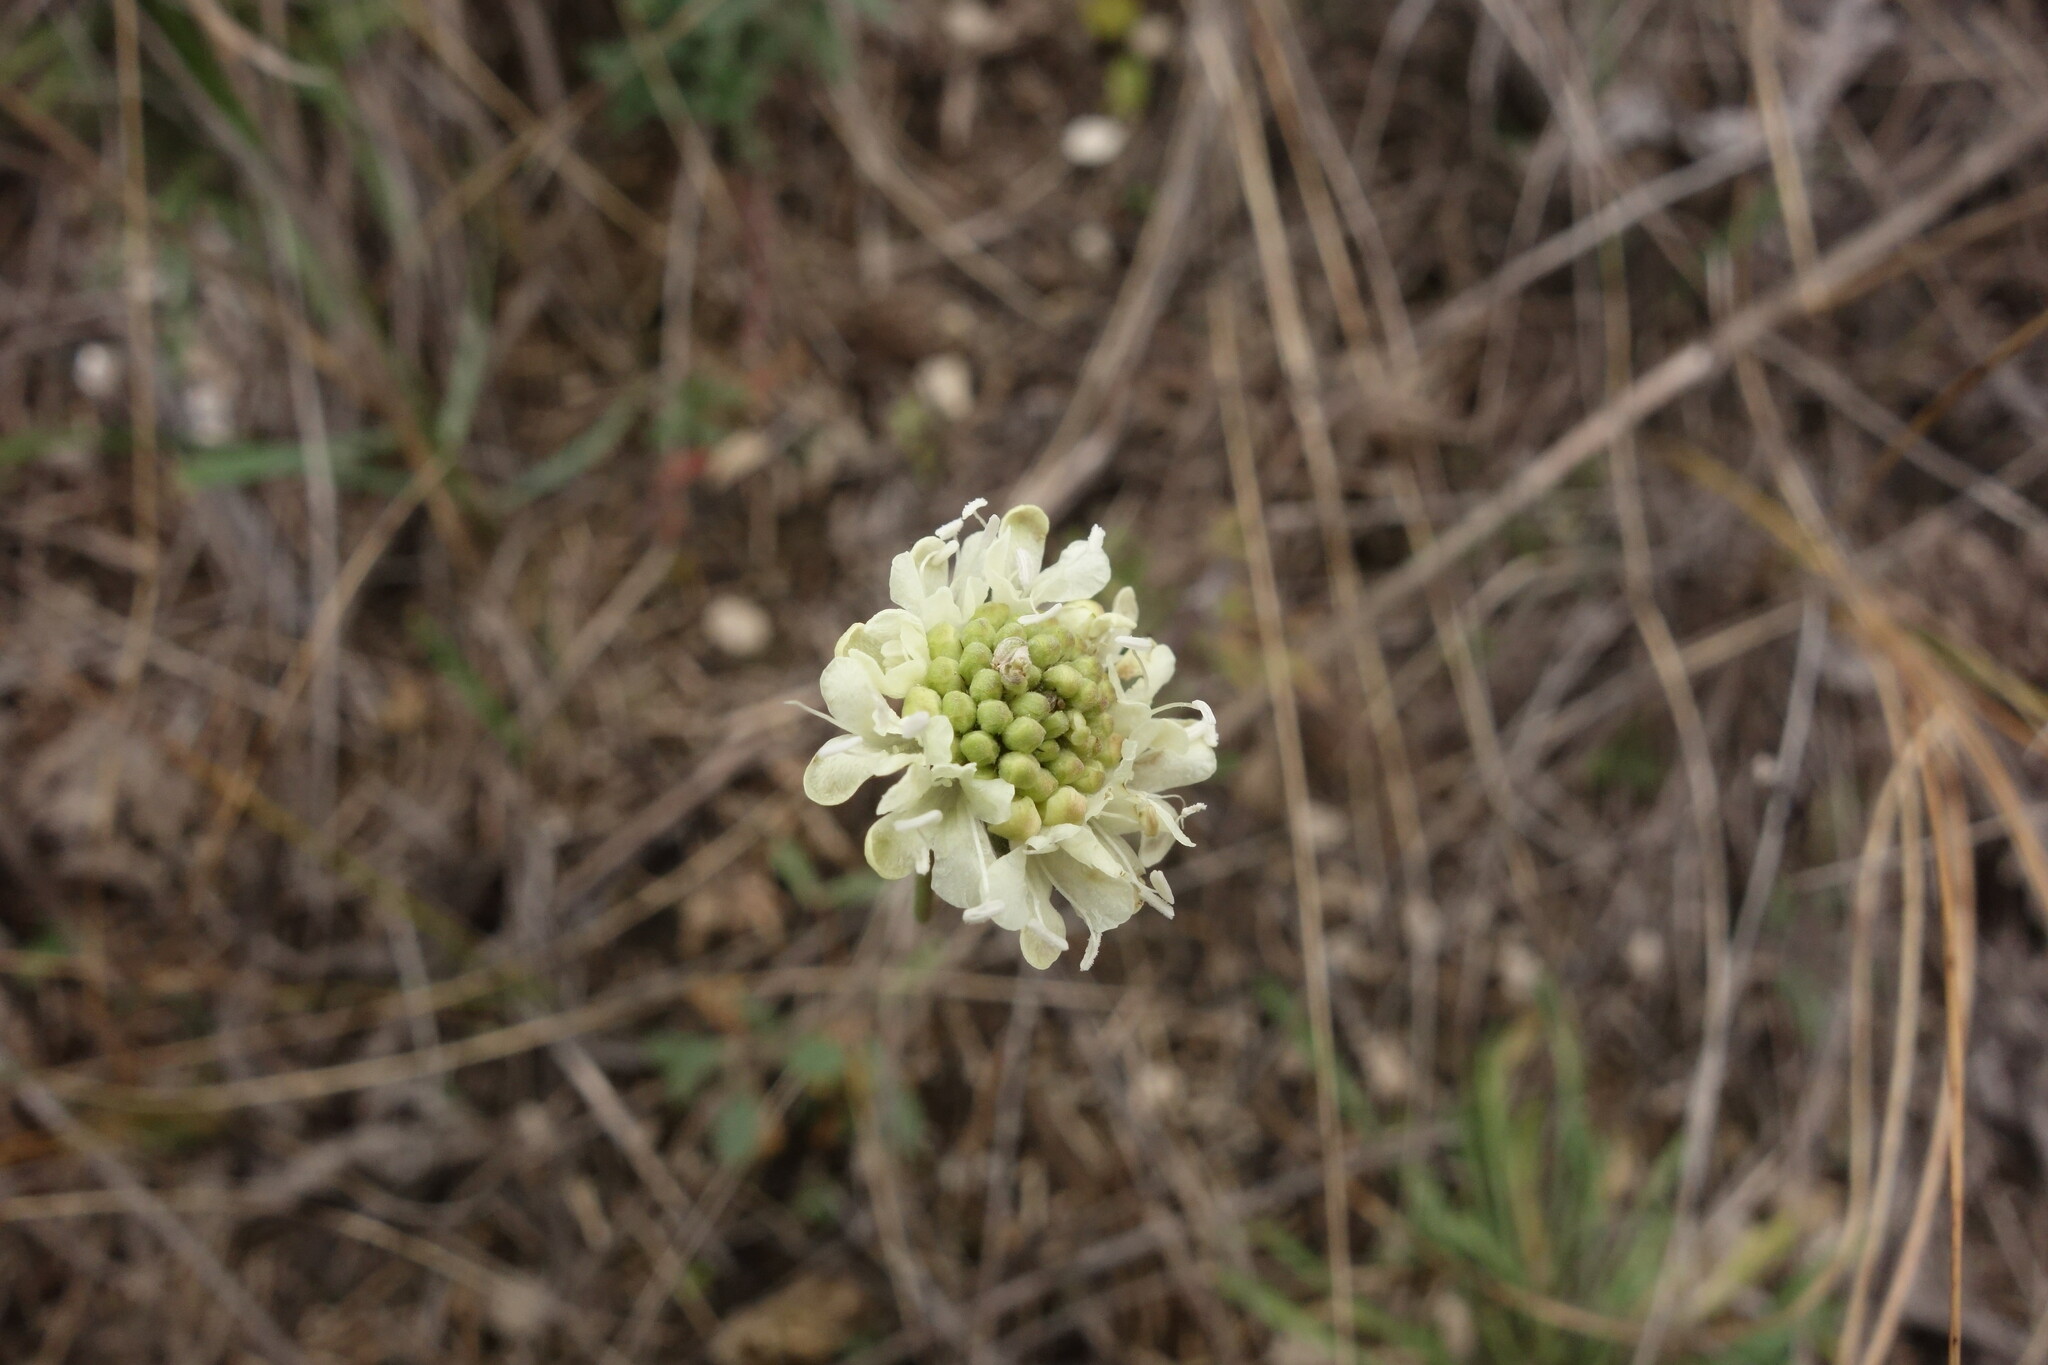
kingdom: Plantae
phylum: Tracheophyta
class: Magnoliopsida
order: Dipsacales
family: Caprifoliaceae
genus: Scabiosa
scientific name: Scabiosa ochroleuca
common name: Cream pincushions
